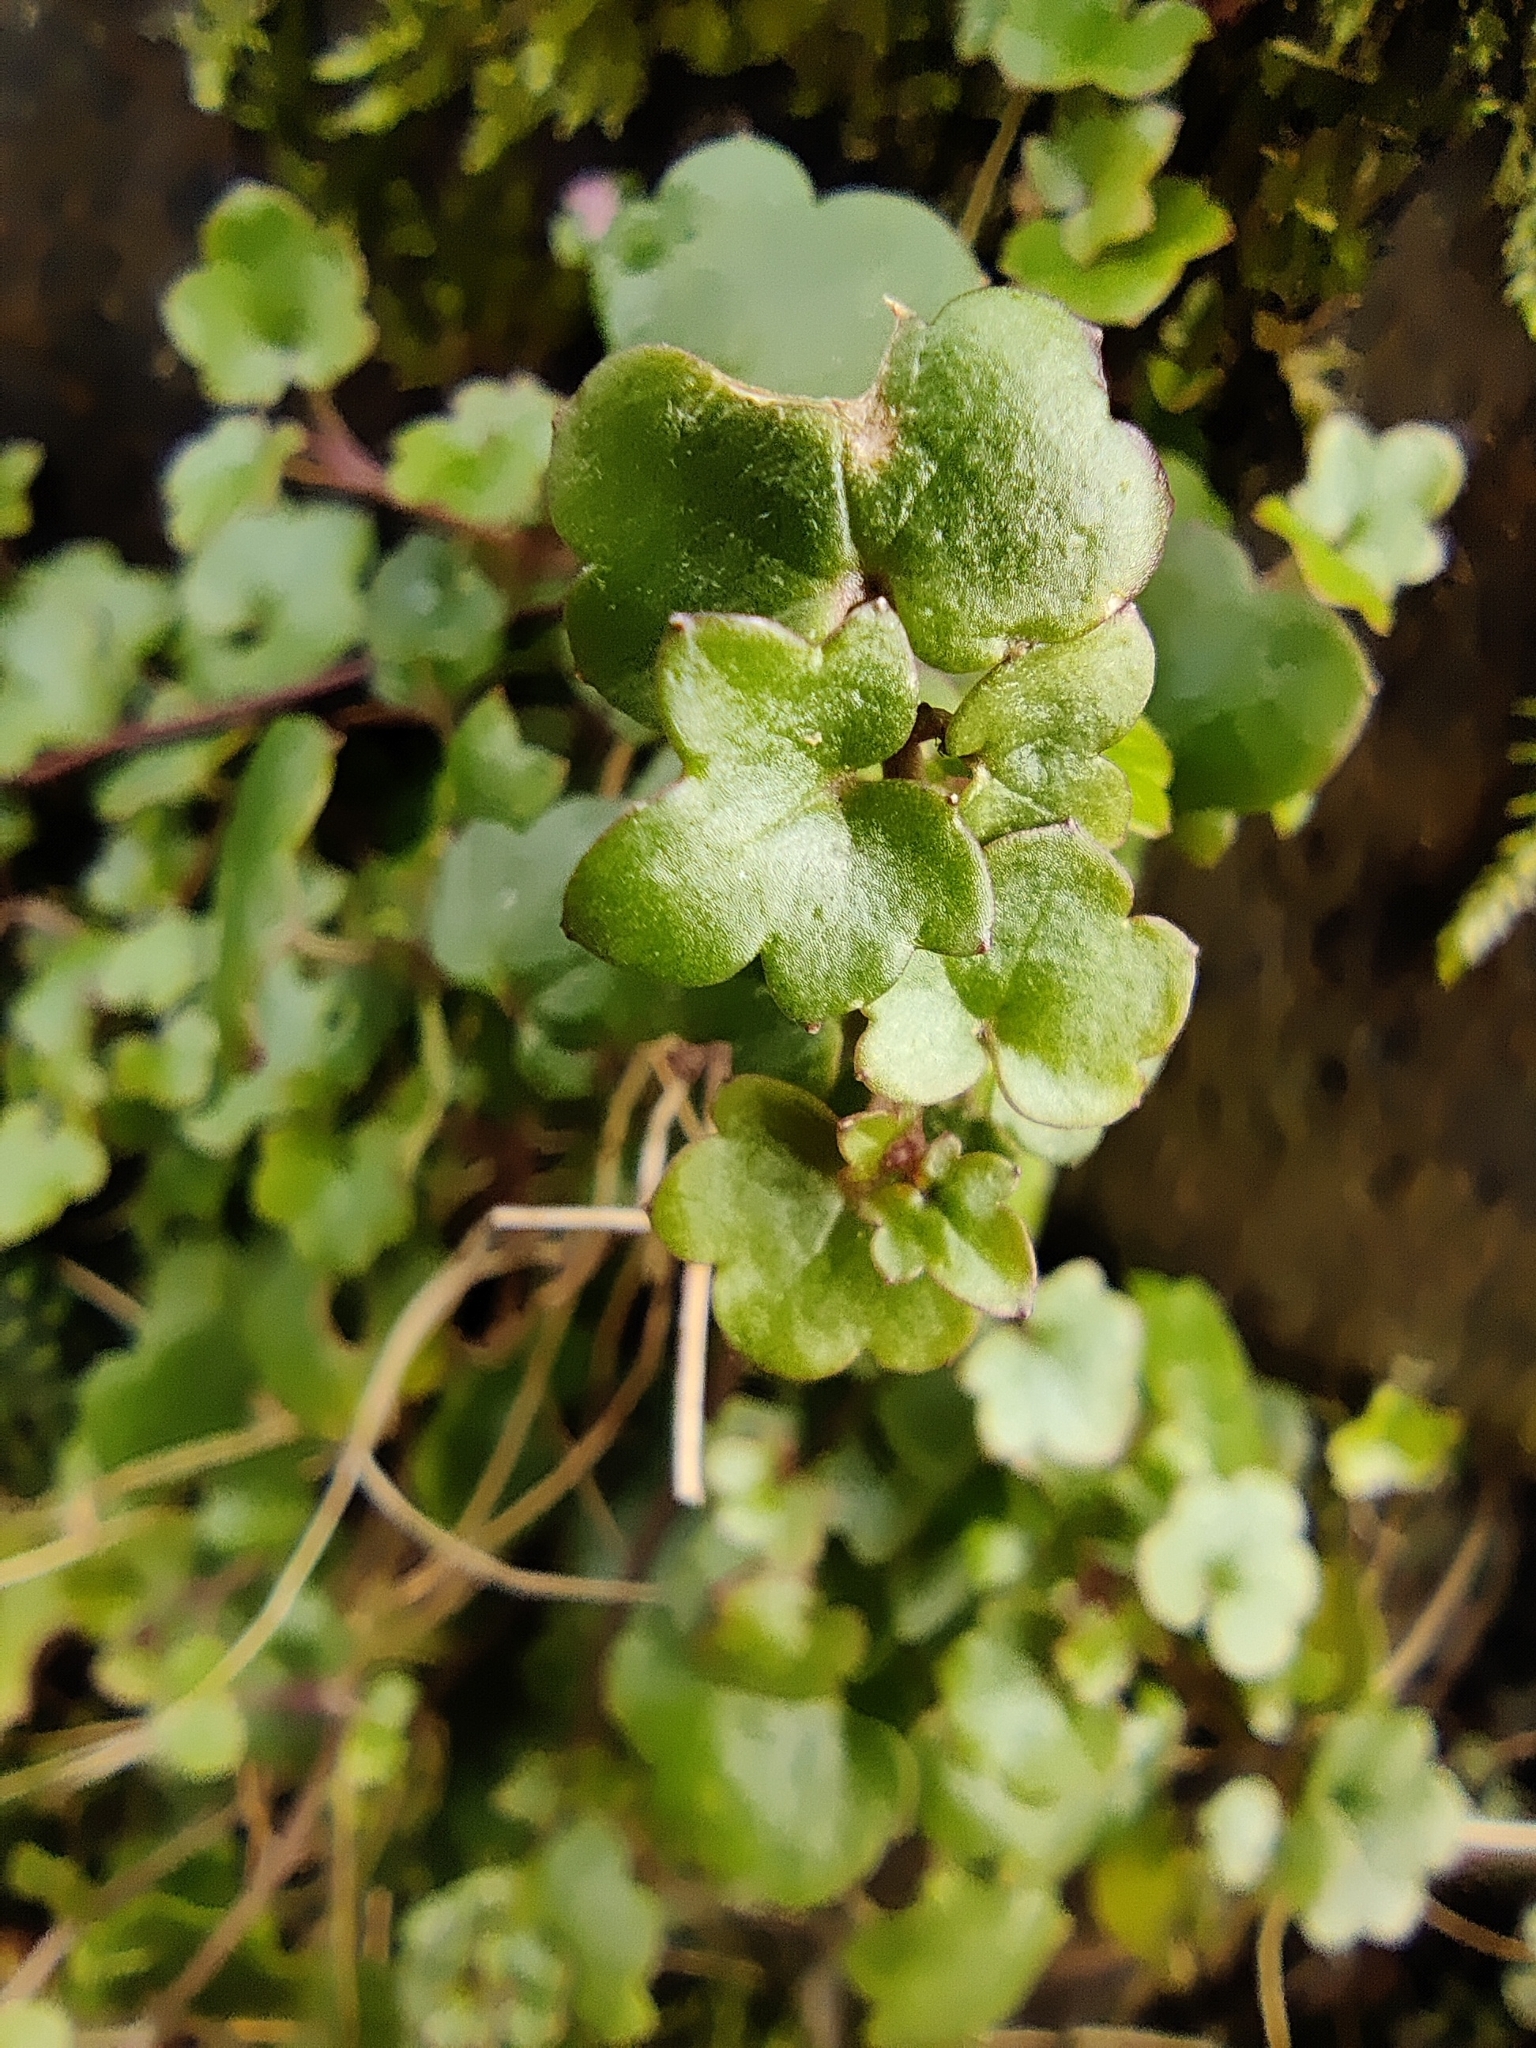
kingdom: Plantae
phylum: Tracheophyta
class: Magnoliopsida
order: Lamiales
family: Plantaginaceae
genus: Cymbalaria
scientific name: Cymbalaria muralis
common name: Ivy-leaved toadflax
